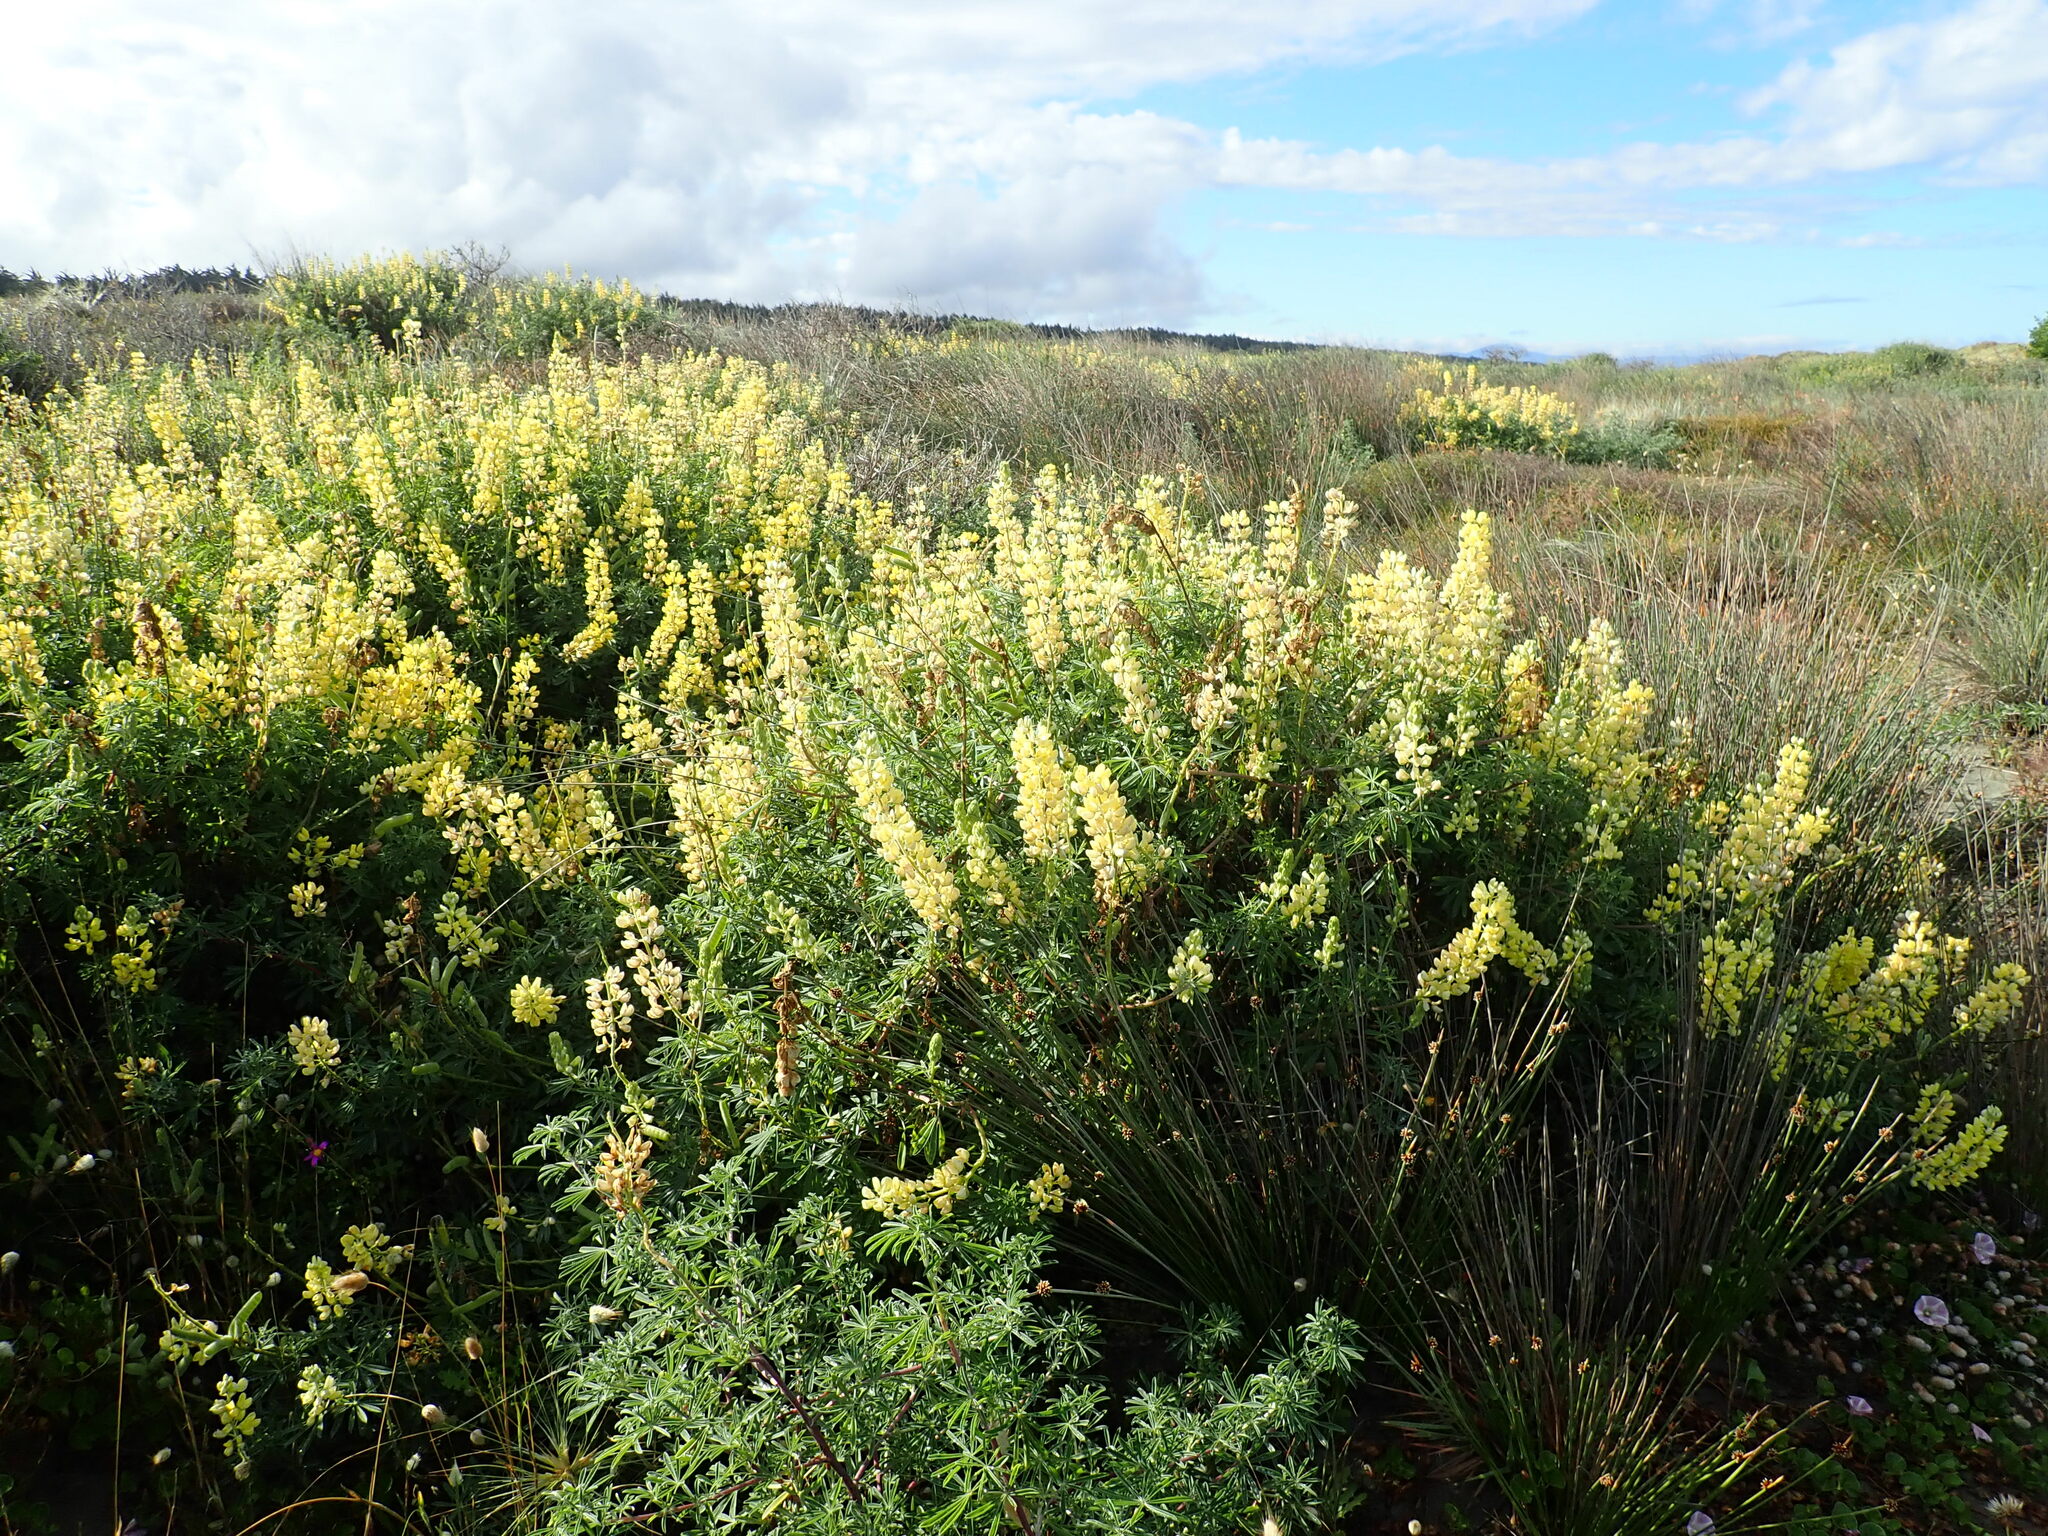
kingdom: Plantae
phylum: Tracheophyta
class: Magnoliopsida
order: Fabales
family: Fabaceae
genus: Lupinus
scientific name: Lupinus arboreus
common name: Yellow bush lupine
